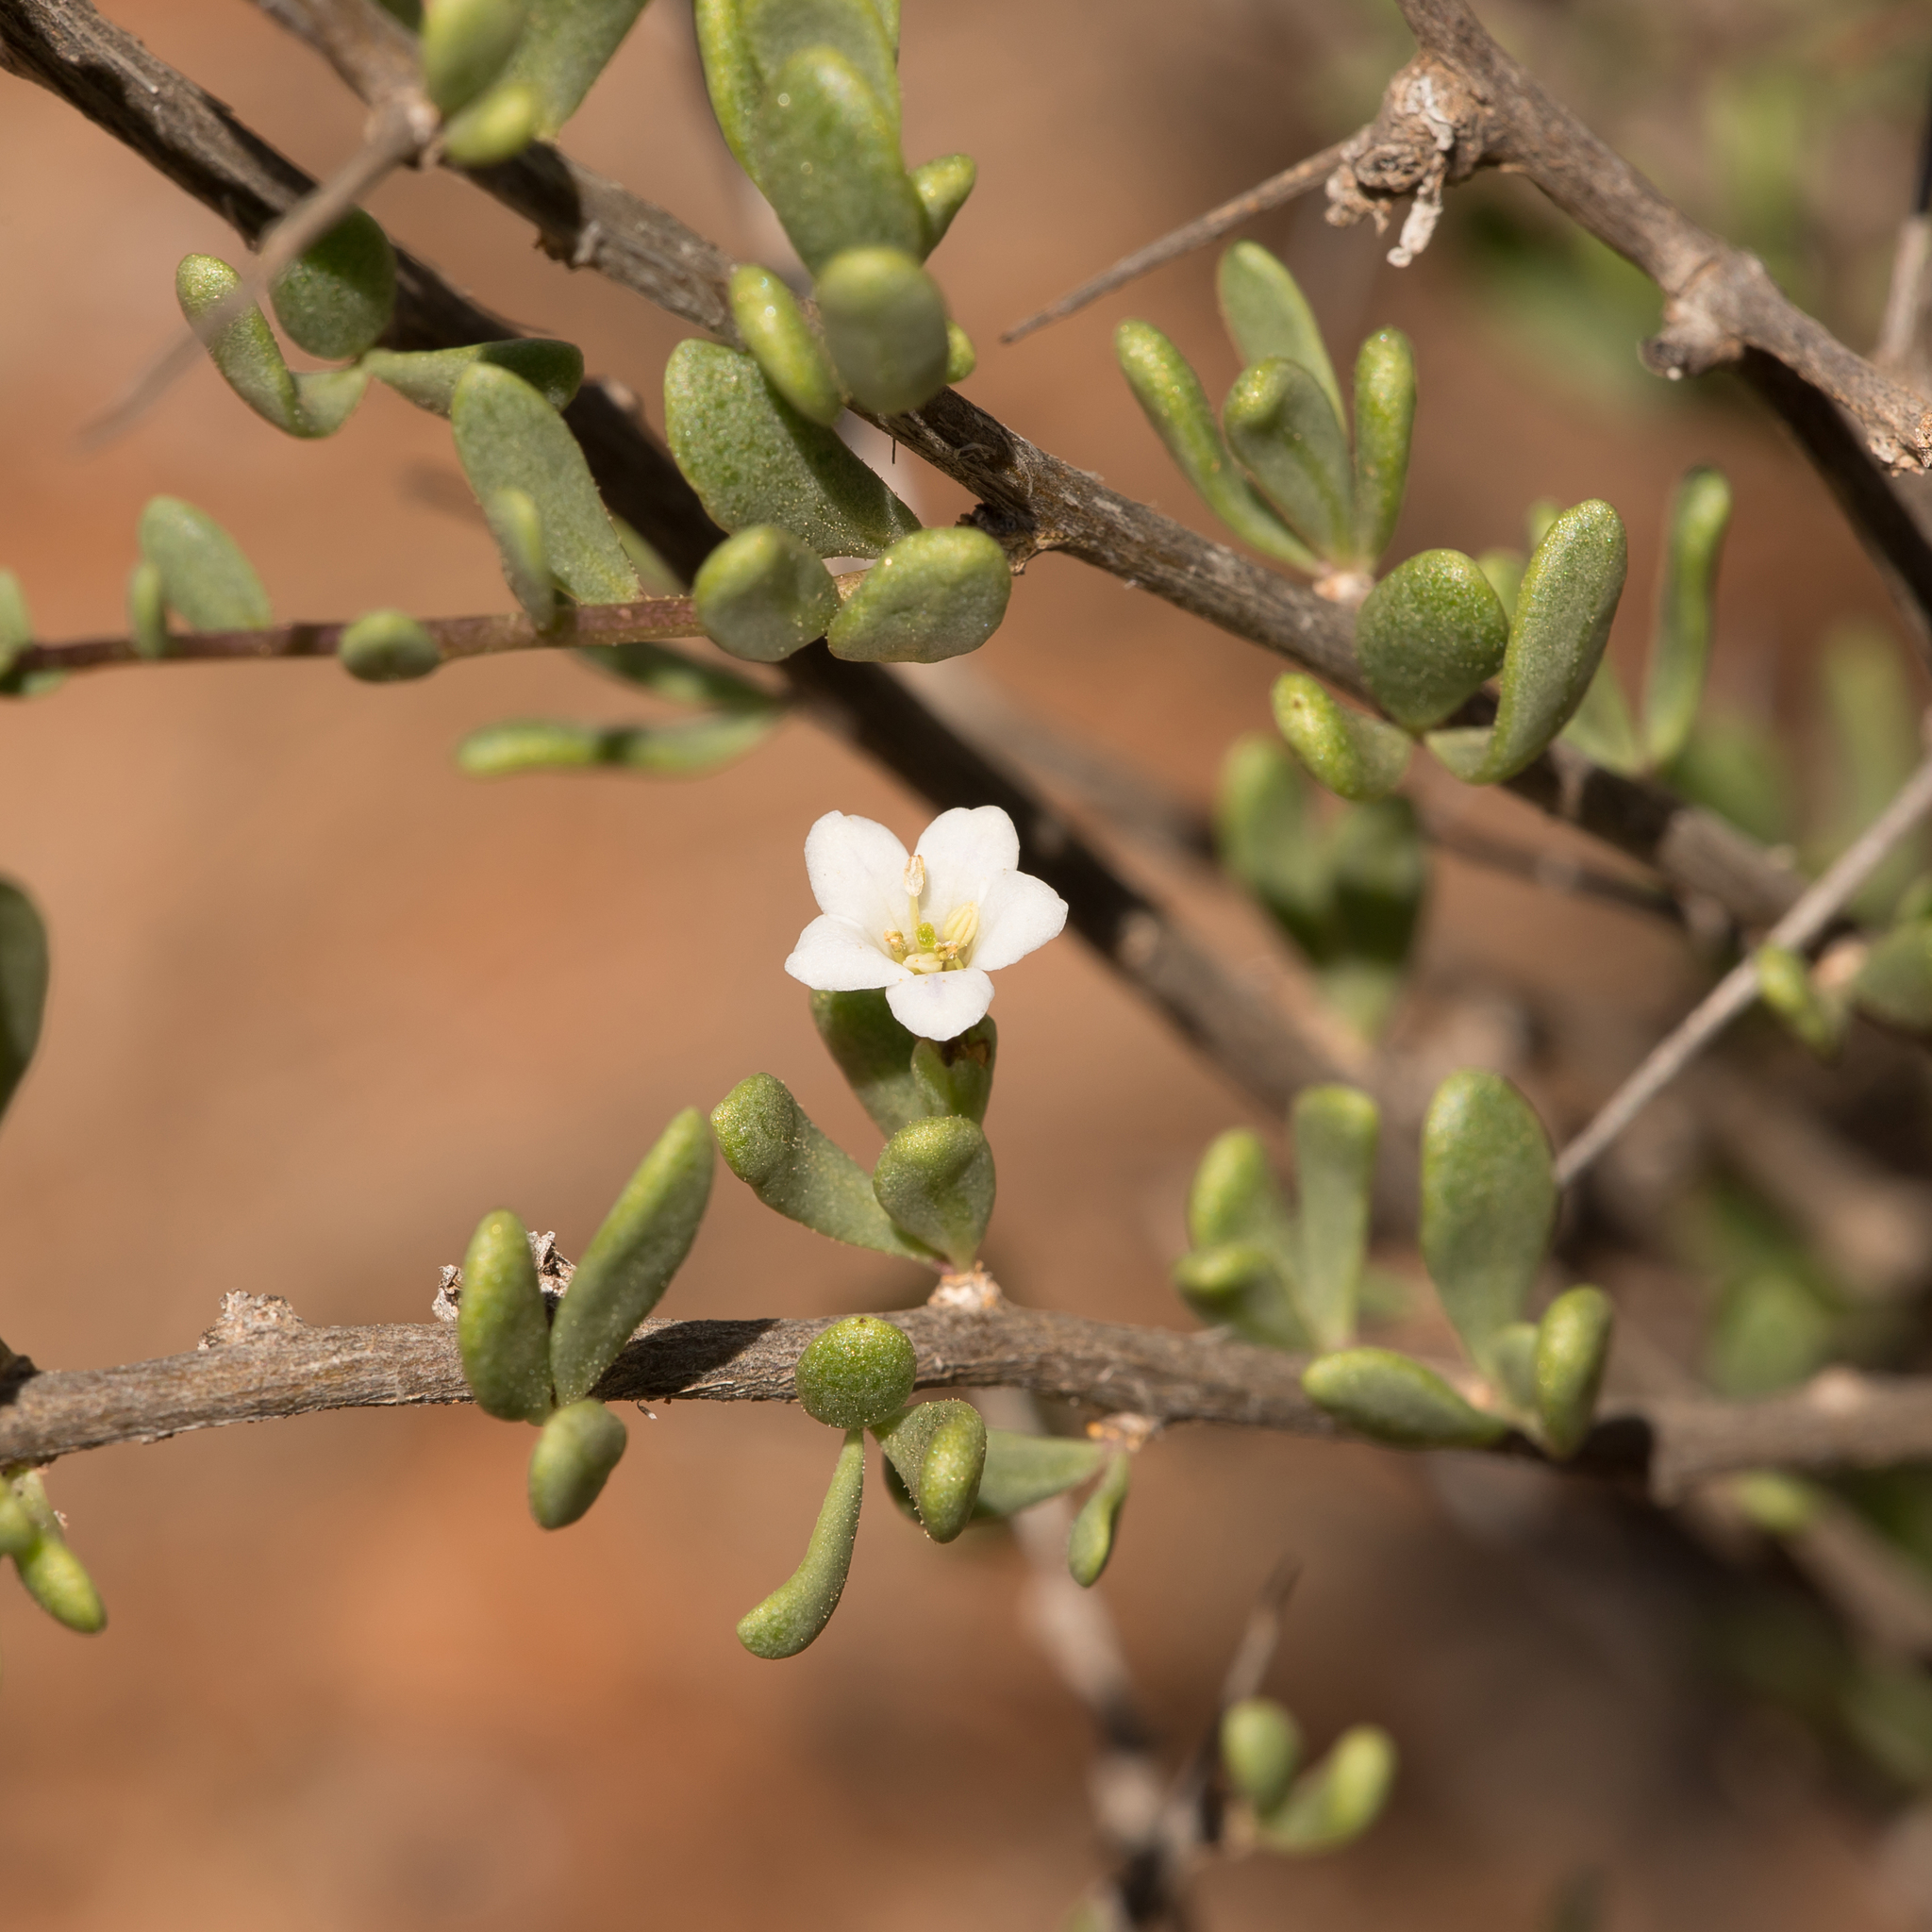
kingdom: Plantae
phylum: Tracheophyta
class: Magnoliopsida
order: Solanales
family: Solanaceae
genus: Lycium
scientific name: Lycium australe
